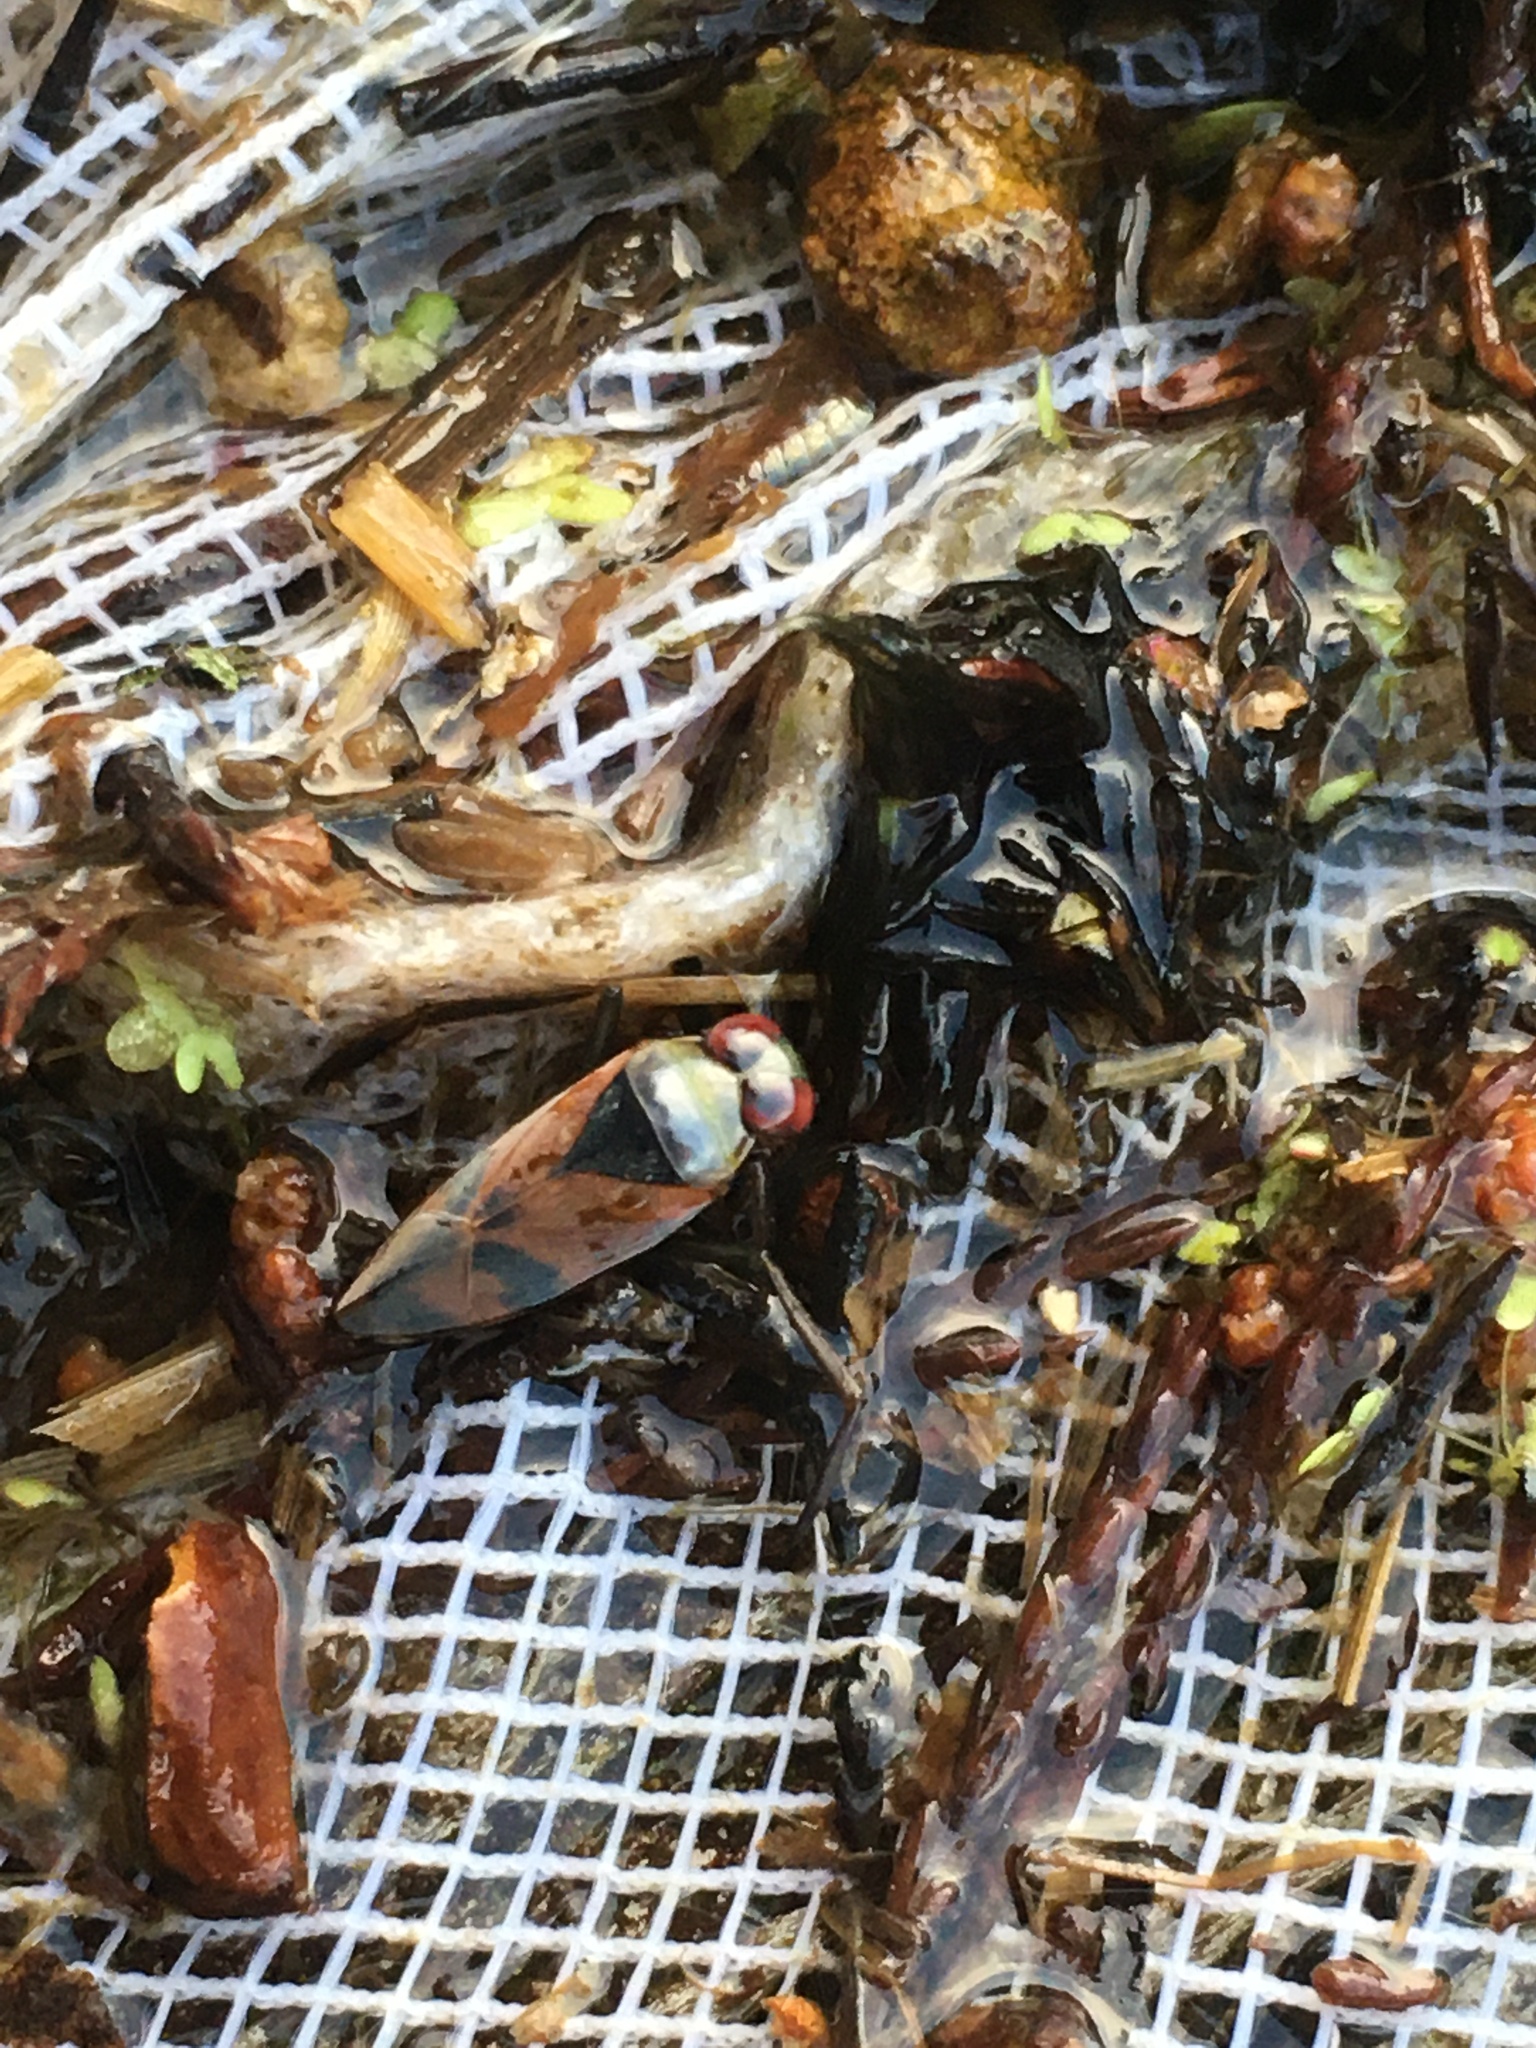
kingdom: Animalia
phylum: Arthropoda
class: Insecta
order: Hemiptera
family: Notonectidae
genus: Notonecta
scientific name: Notonecta uhleri
